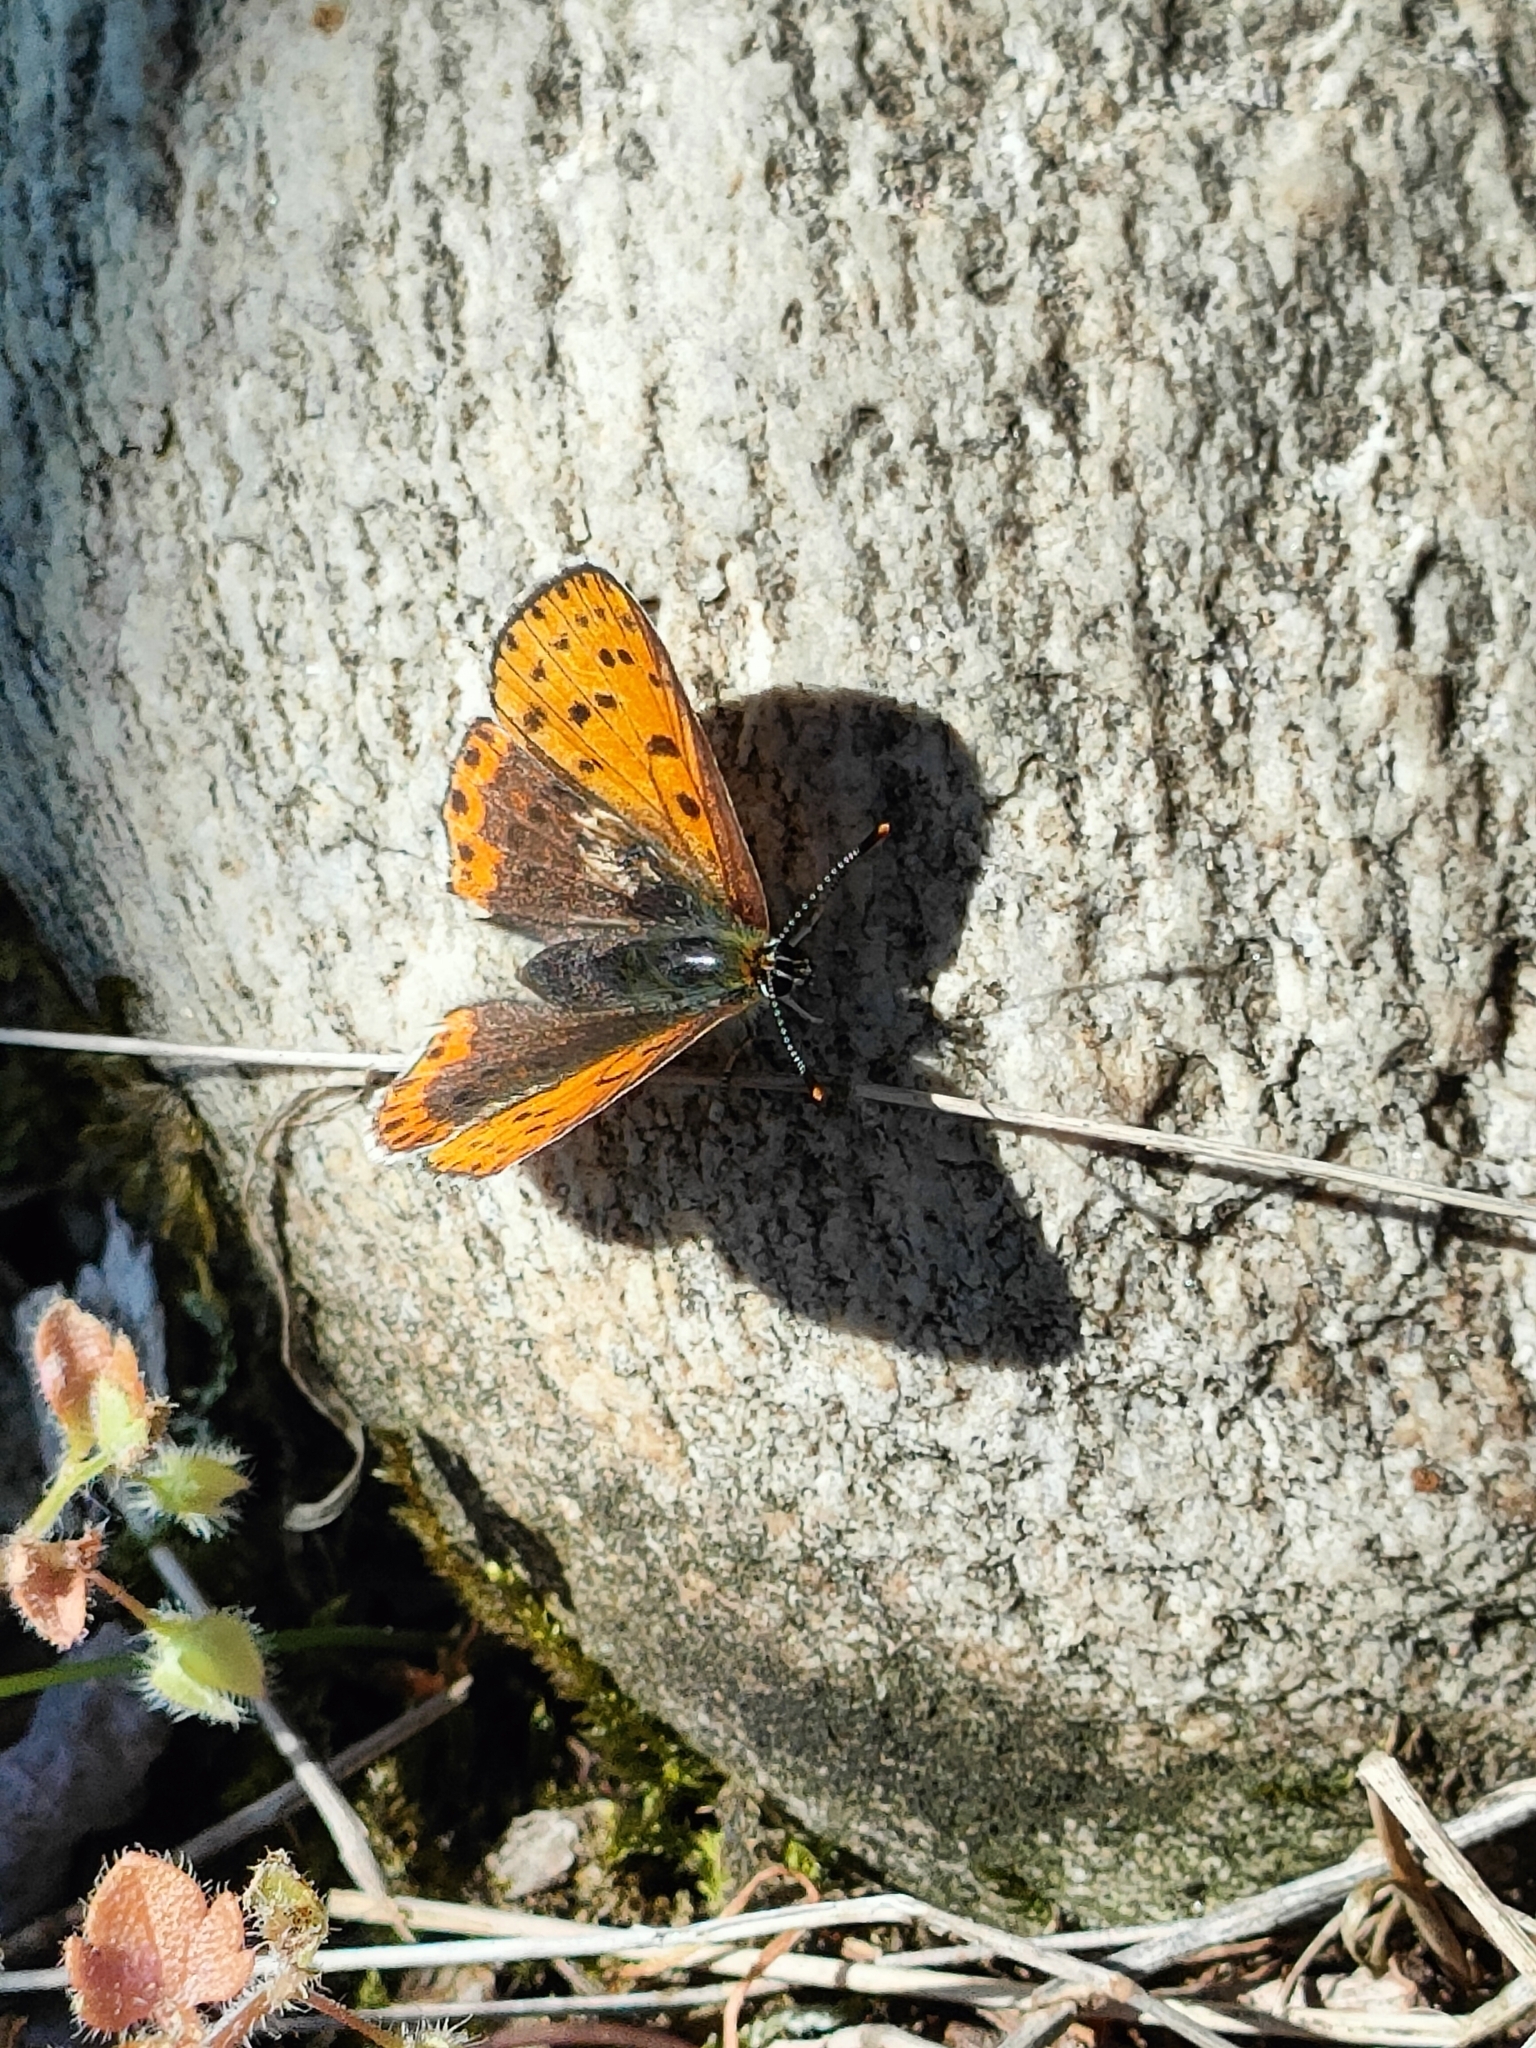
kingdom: Animalia
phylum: Arthropoda
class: Insecta
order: Lepidoptera
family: Lycaenidae
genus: Loweia
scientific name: Loweia tityrus
